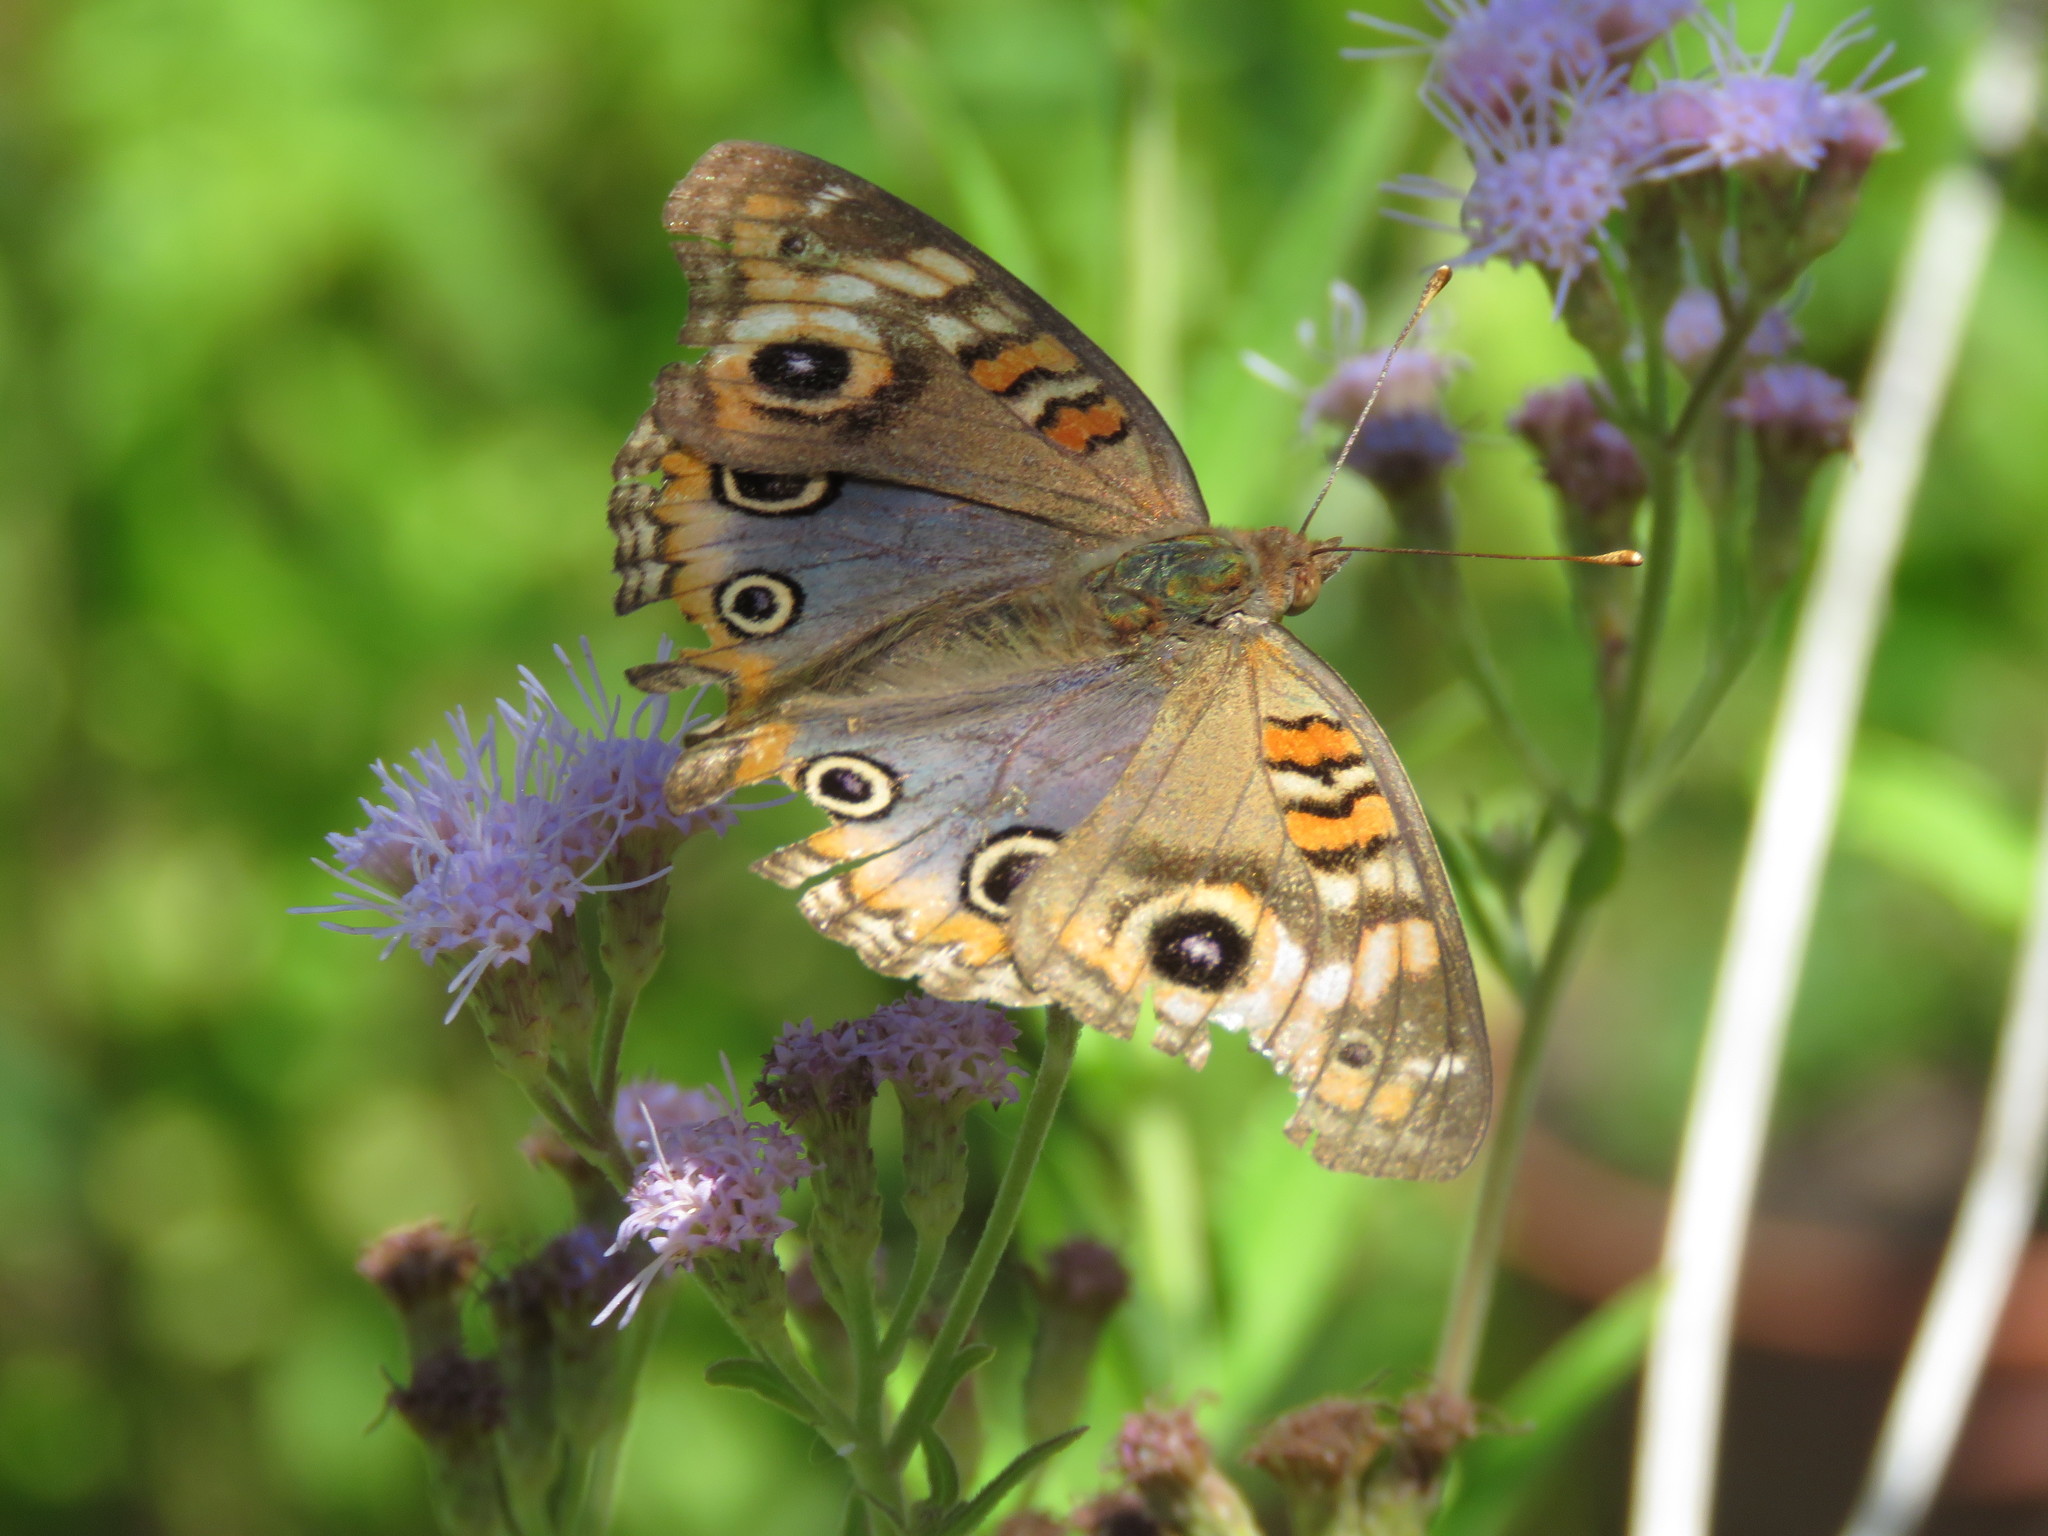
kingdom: Animalia
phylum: Arthropoda
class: Insecta
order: Lepidoptera
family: Nymphalidae
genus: Junonia
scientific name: Junonia lavinia
